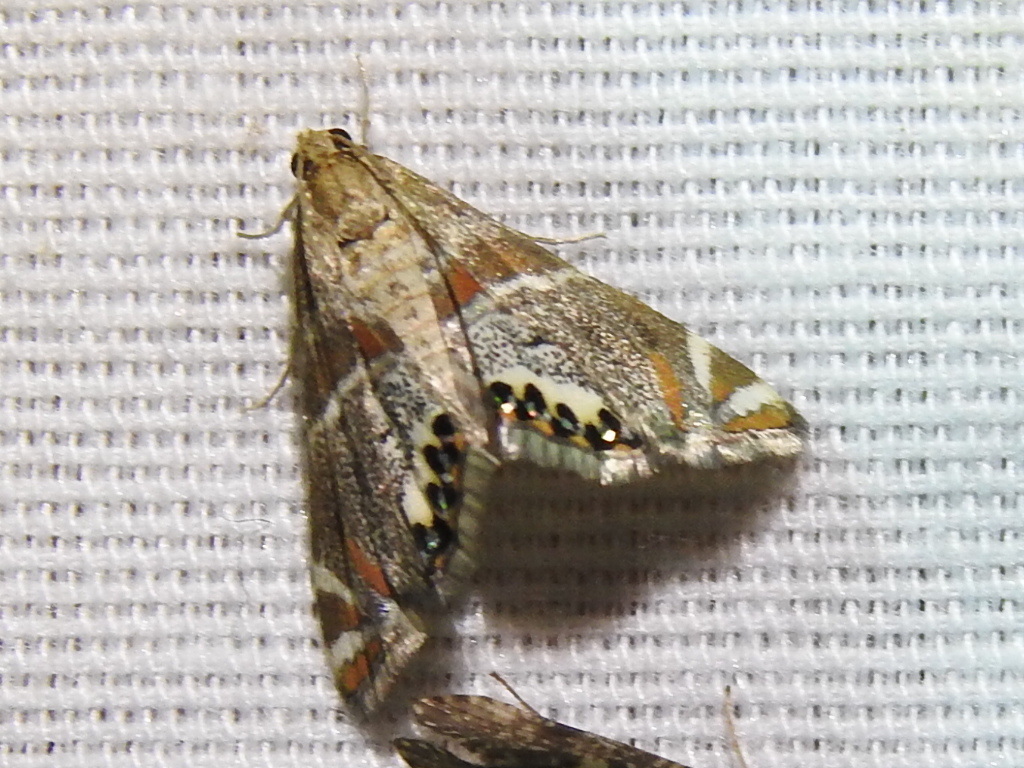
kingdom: Animalia
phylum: Arthropoda
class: Insecta
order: Lepidoptera
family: Crambidae
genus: Petrophila
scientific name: Petrophila jaliscalis
